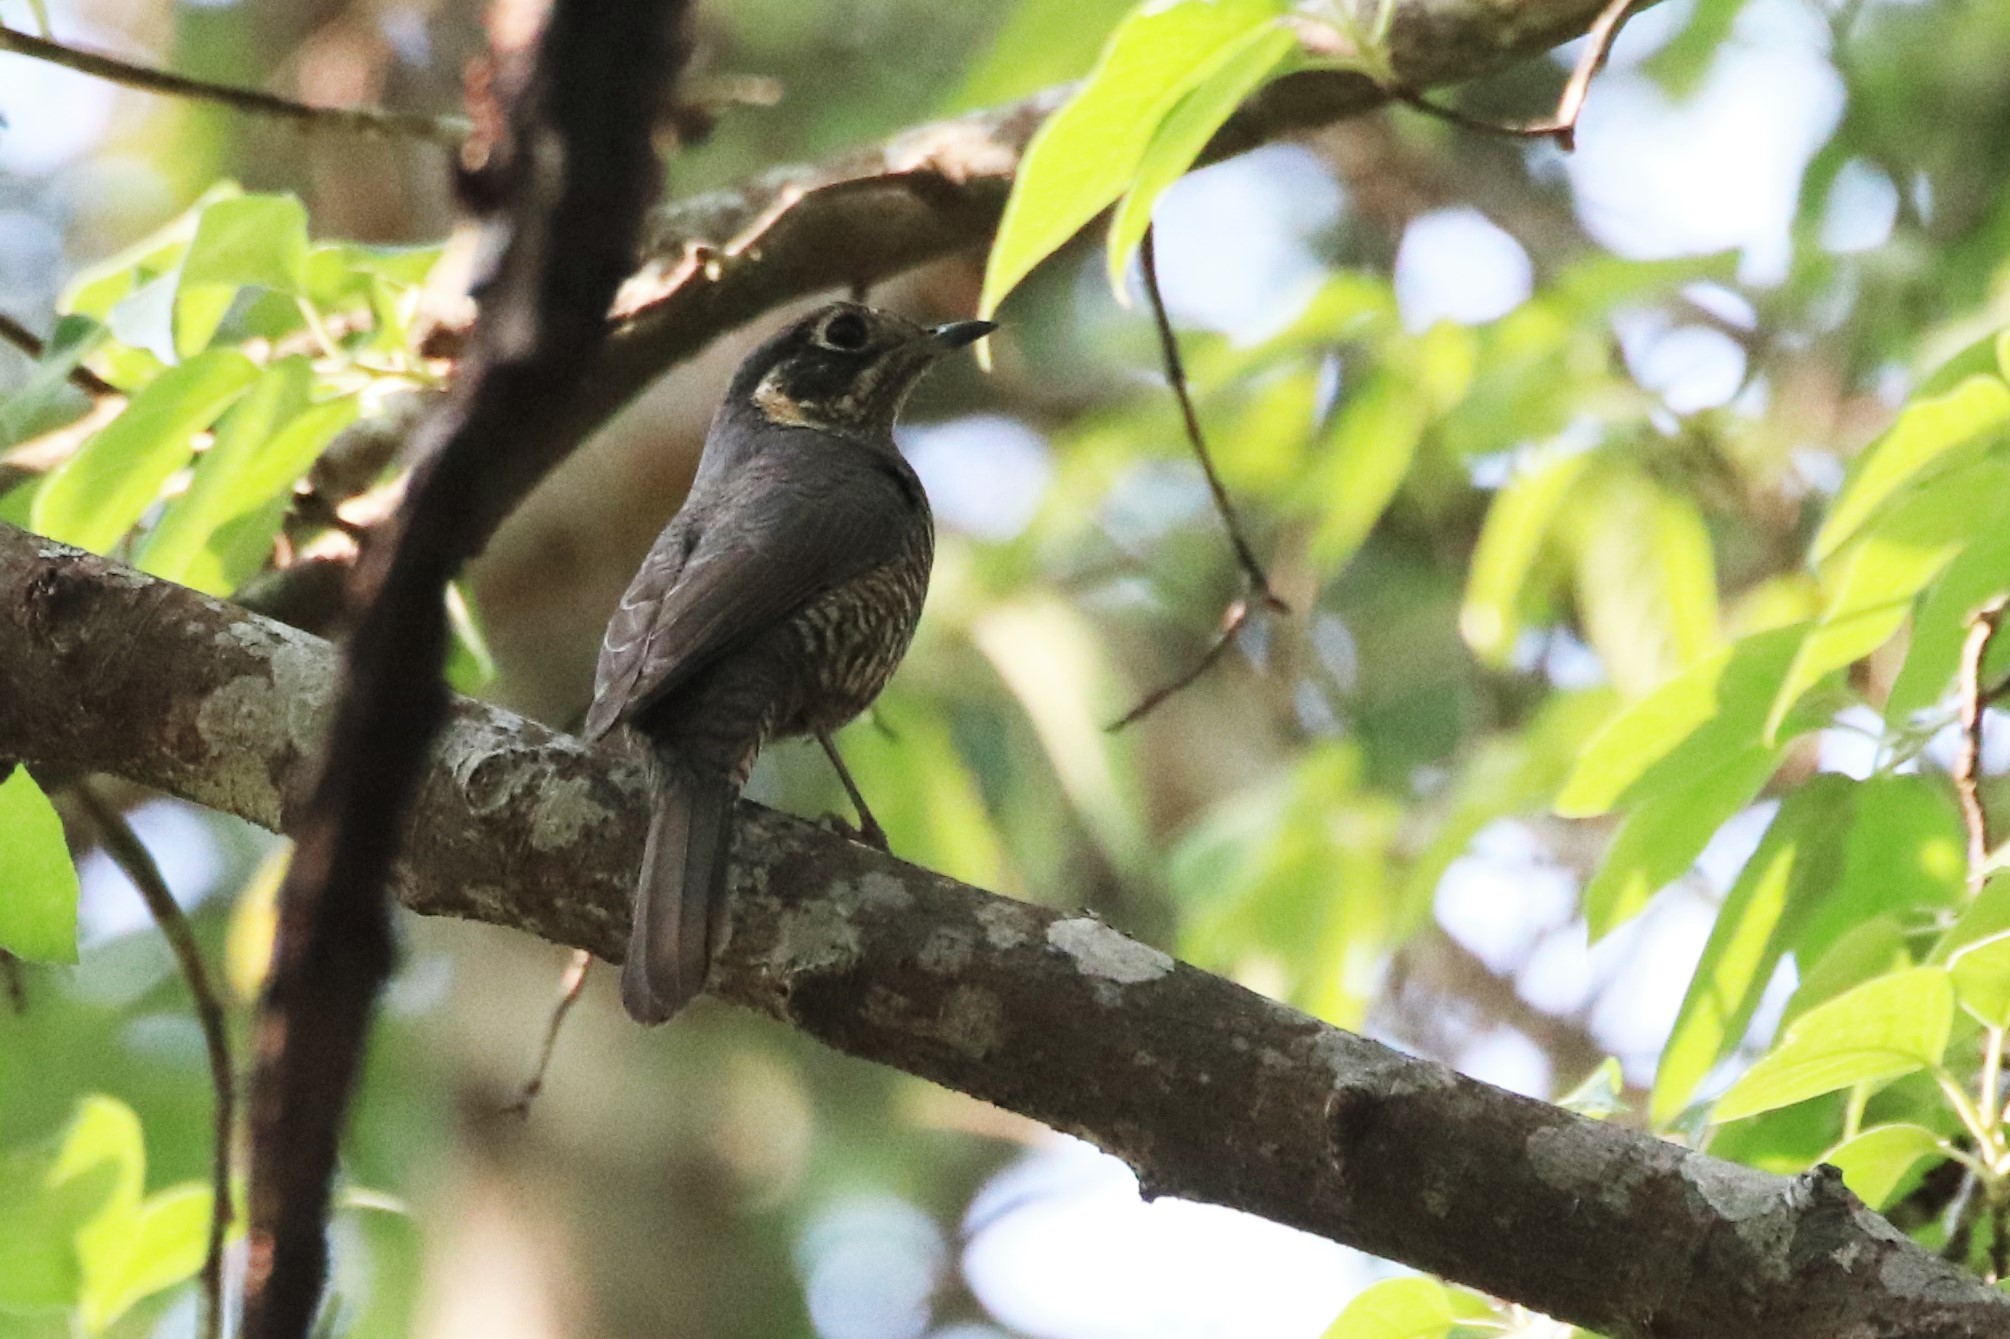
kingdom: Animalia
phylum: Chordata
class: Aves
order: Passeriformes
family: Muscicapidae
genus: Monticola
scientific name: Monticola rufiventris
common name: Chestnut-bellied rock thrush
